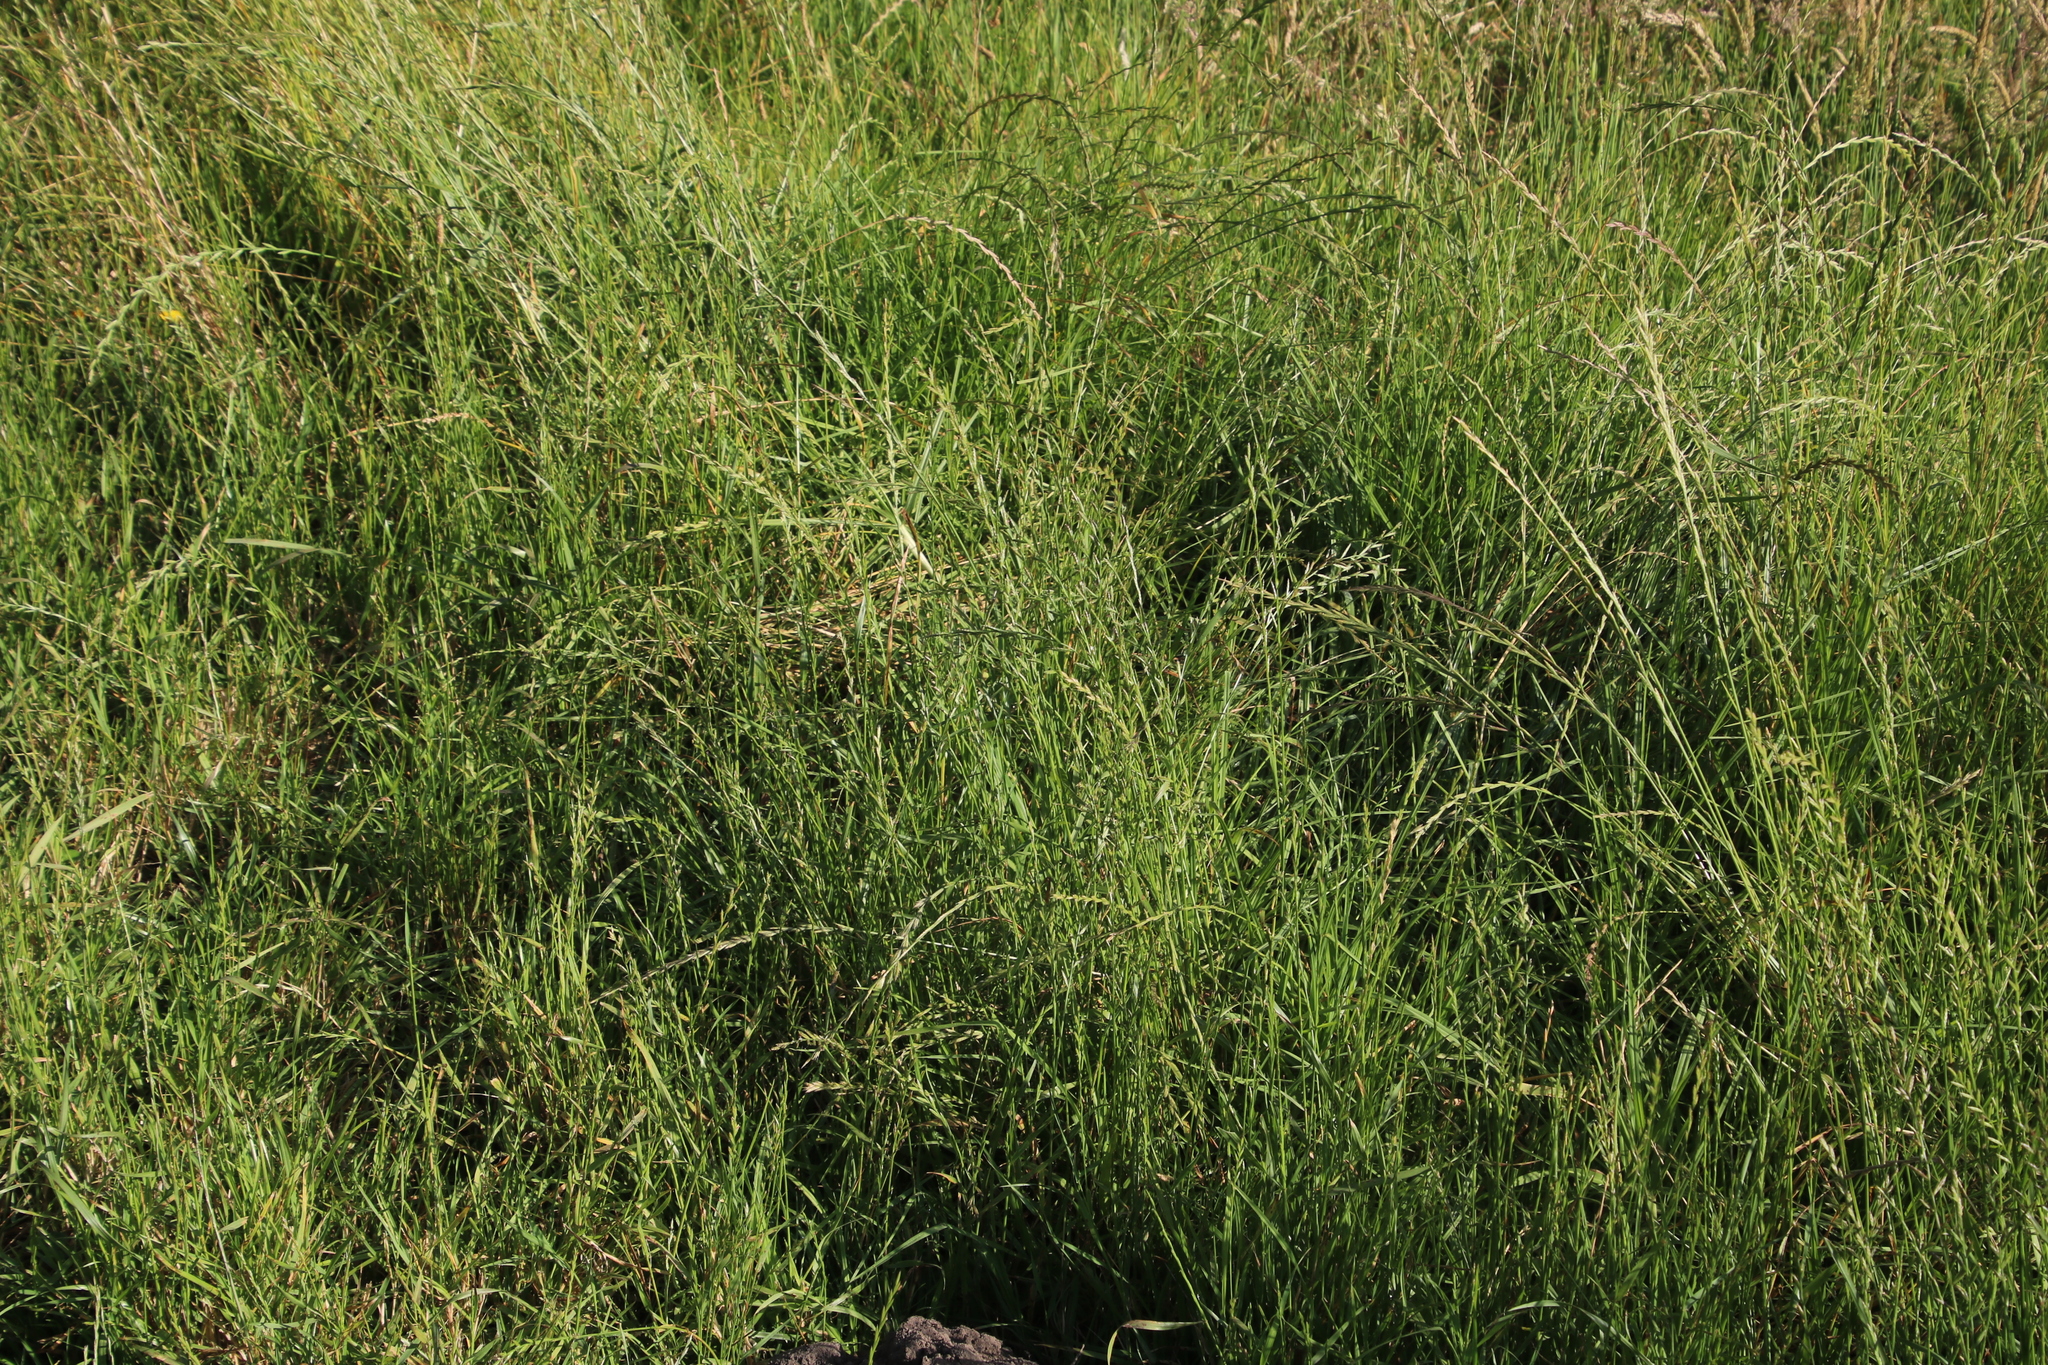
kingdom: Plantae
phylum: Tracheophyta
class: Liliopsida
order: Poales
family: Poaceae
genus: Lolium
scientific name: Lolium perenne
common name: Perennial ryegrass
